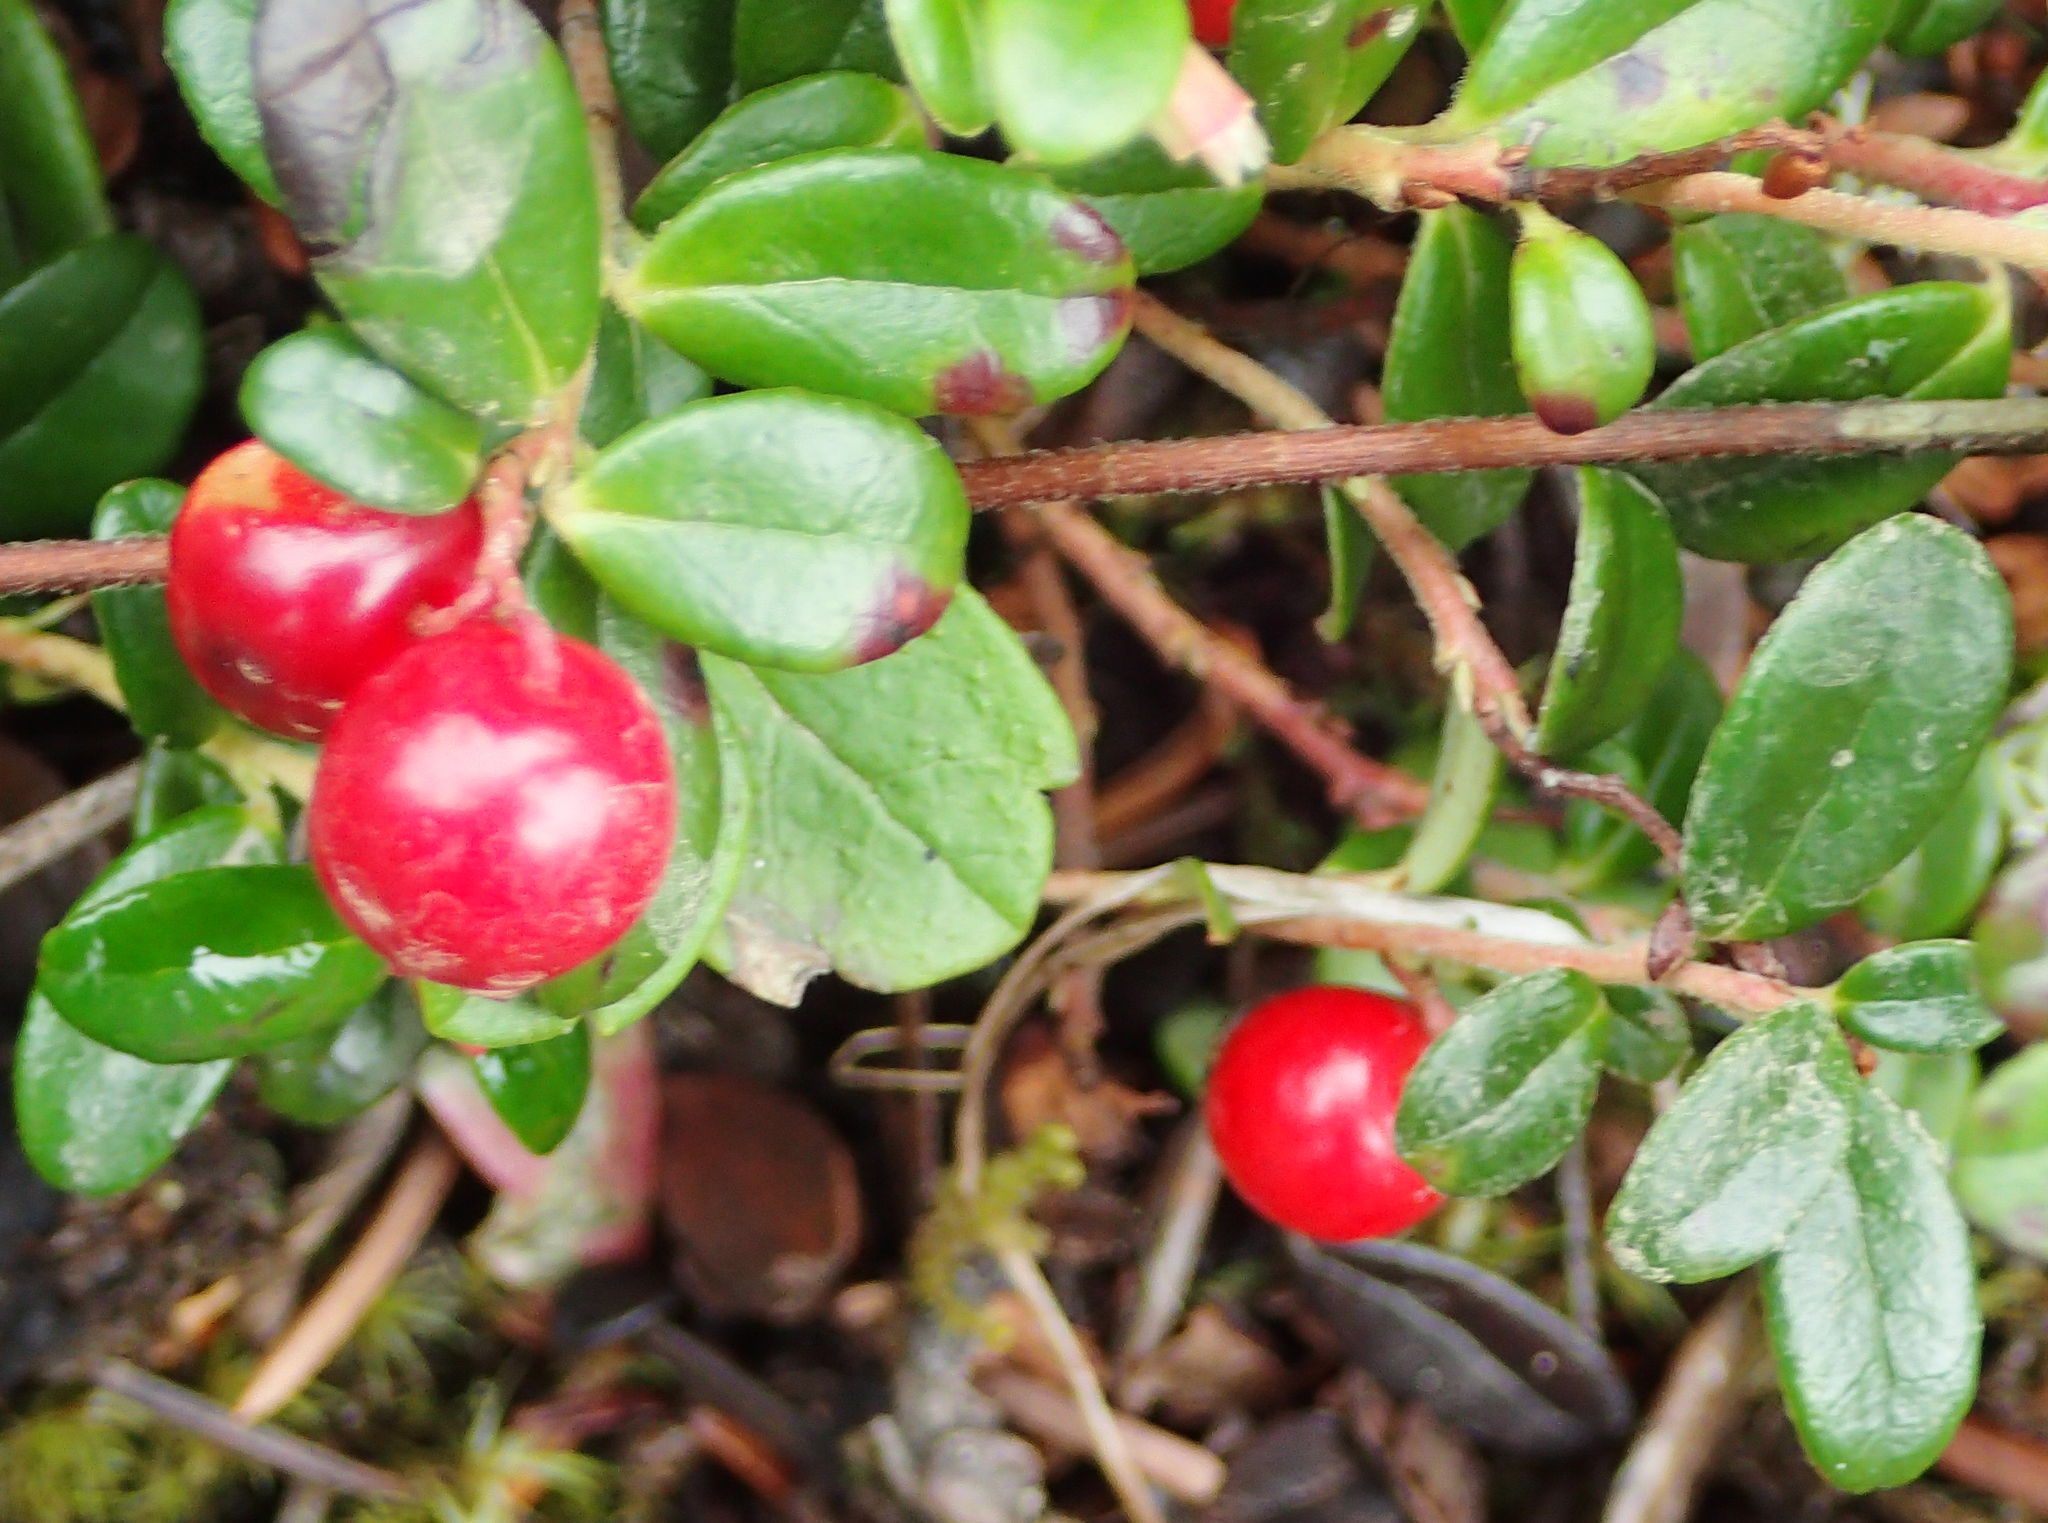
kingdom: Plantae
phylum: Tracheophyta
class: Magnoliopsida
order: Ericales
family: Ericaceae
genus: Vaccinium
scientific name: Vaccinium vitis-idaea
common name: Cowberry
